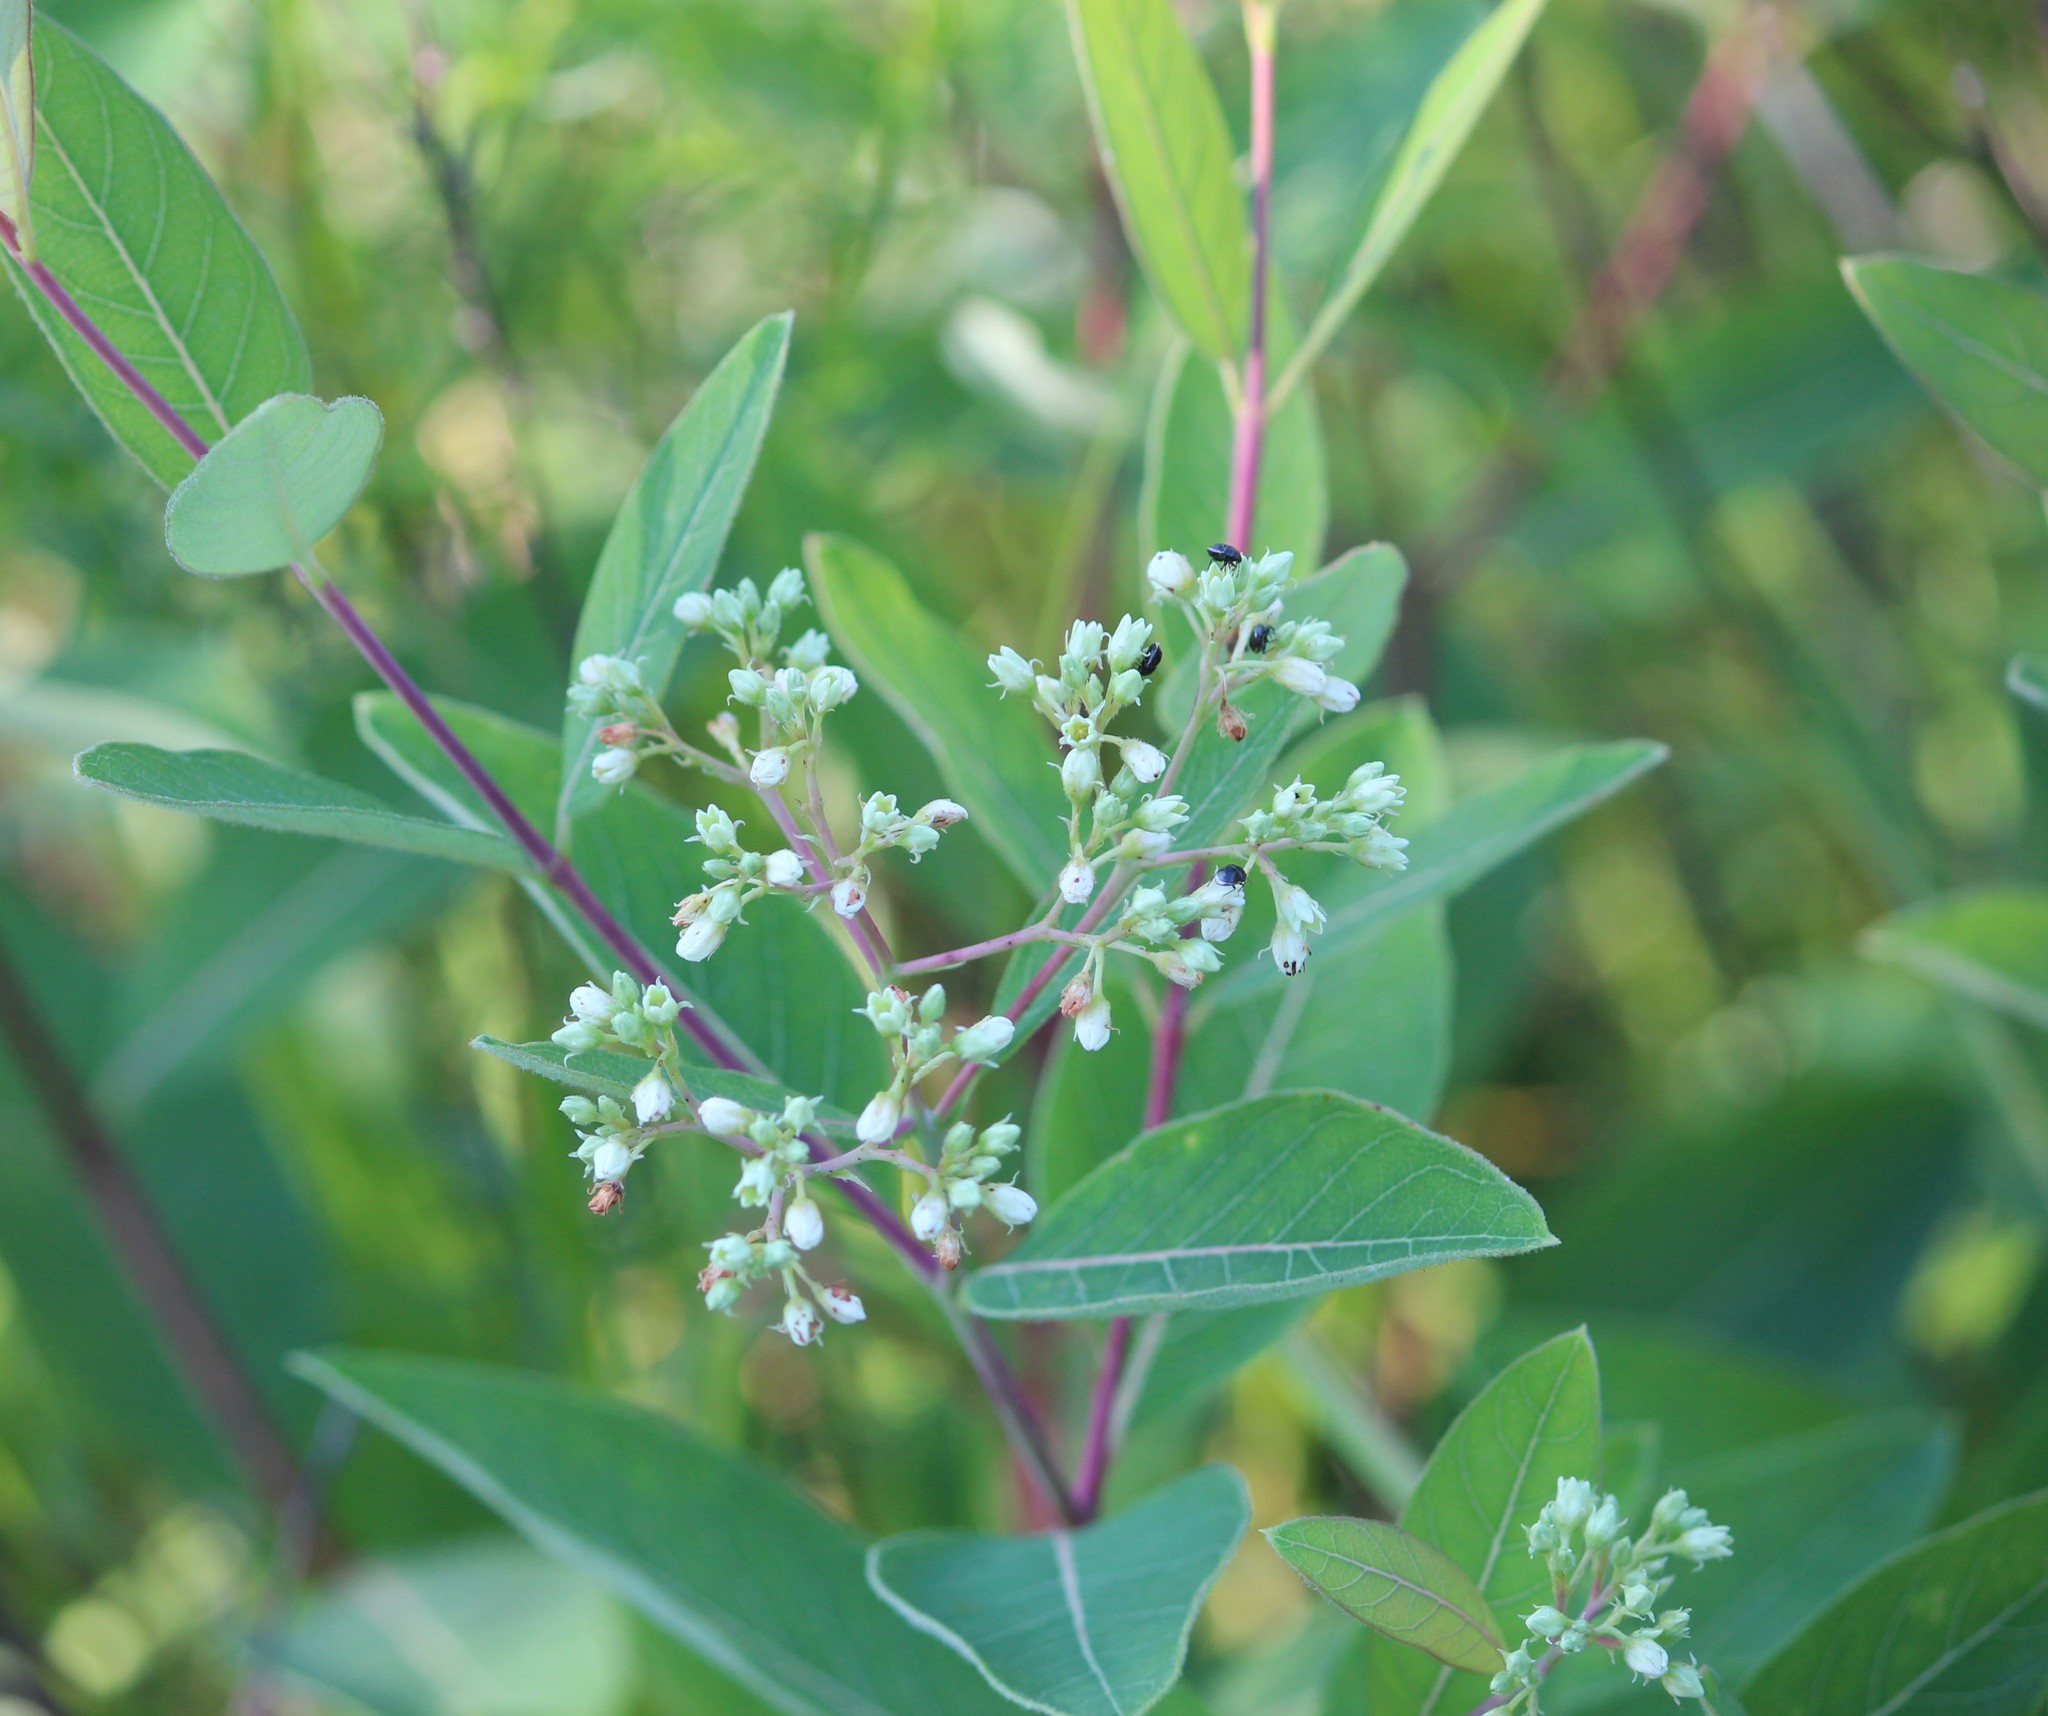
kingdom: Plantae
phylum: Tracheophyta
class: Magnoliopsida
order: Gentianales
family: Apocynaceae
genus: Apocynum
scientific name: Apocynum cannabinum
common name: Hemp dogbane
